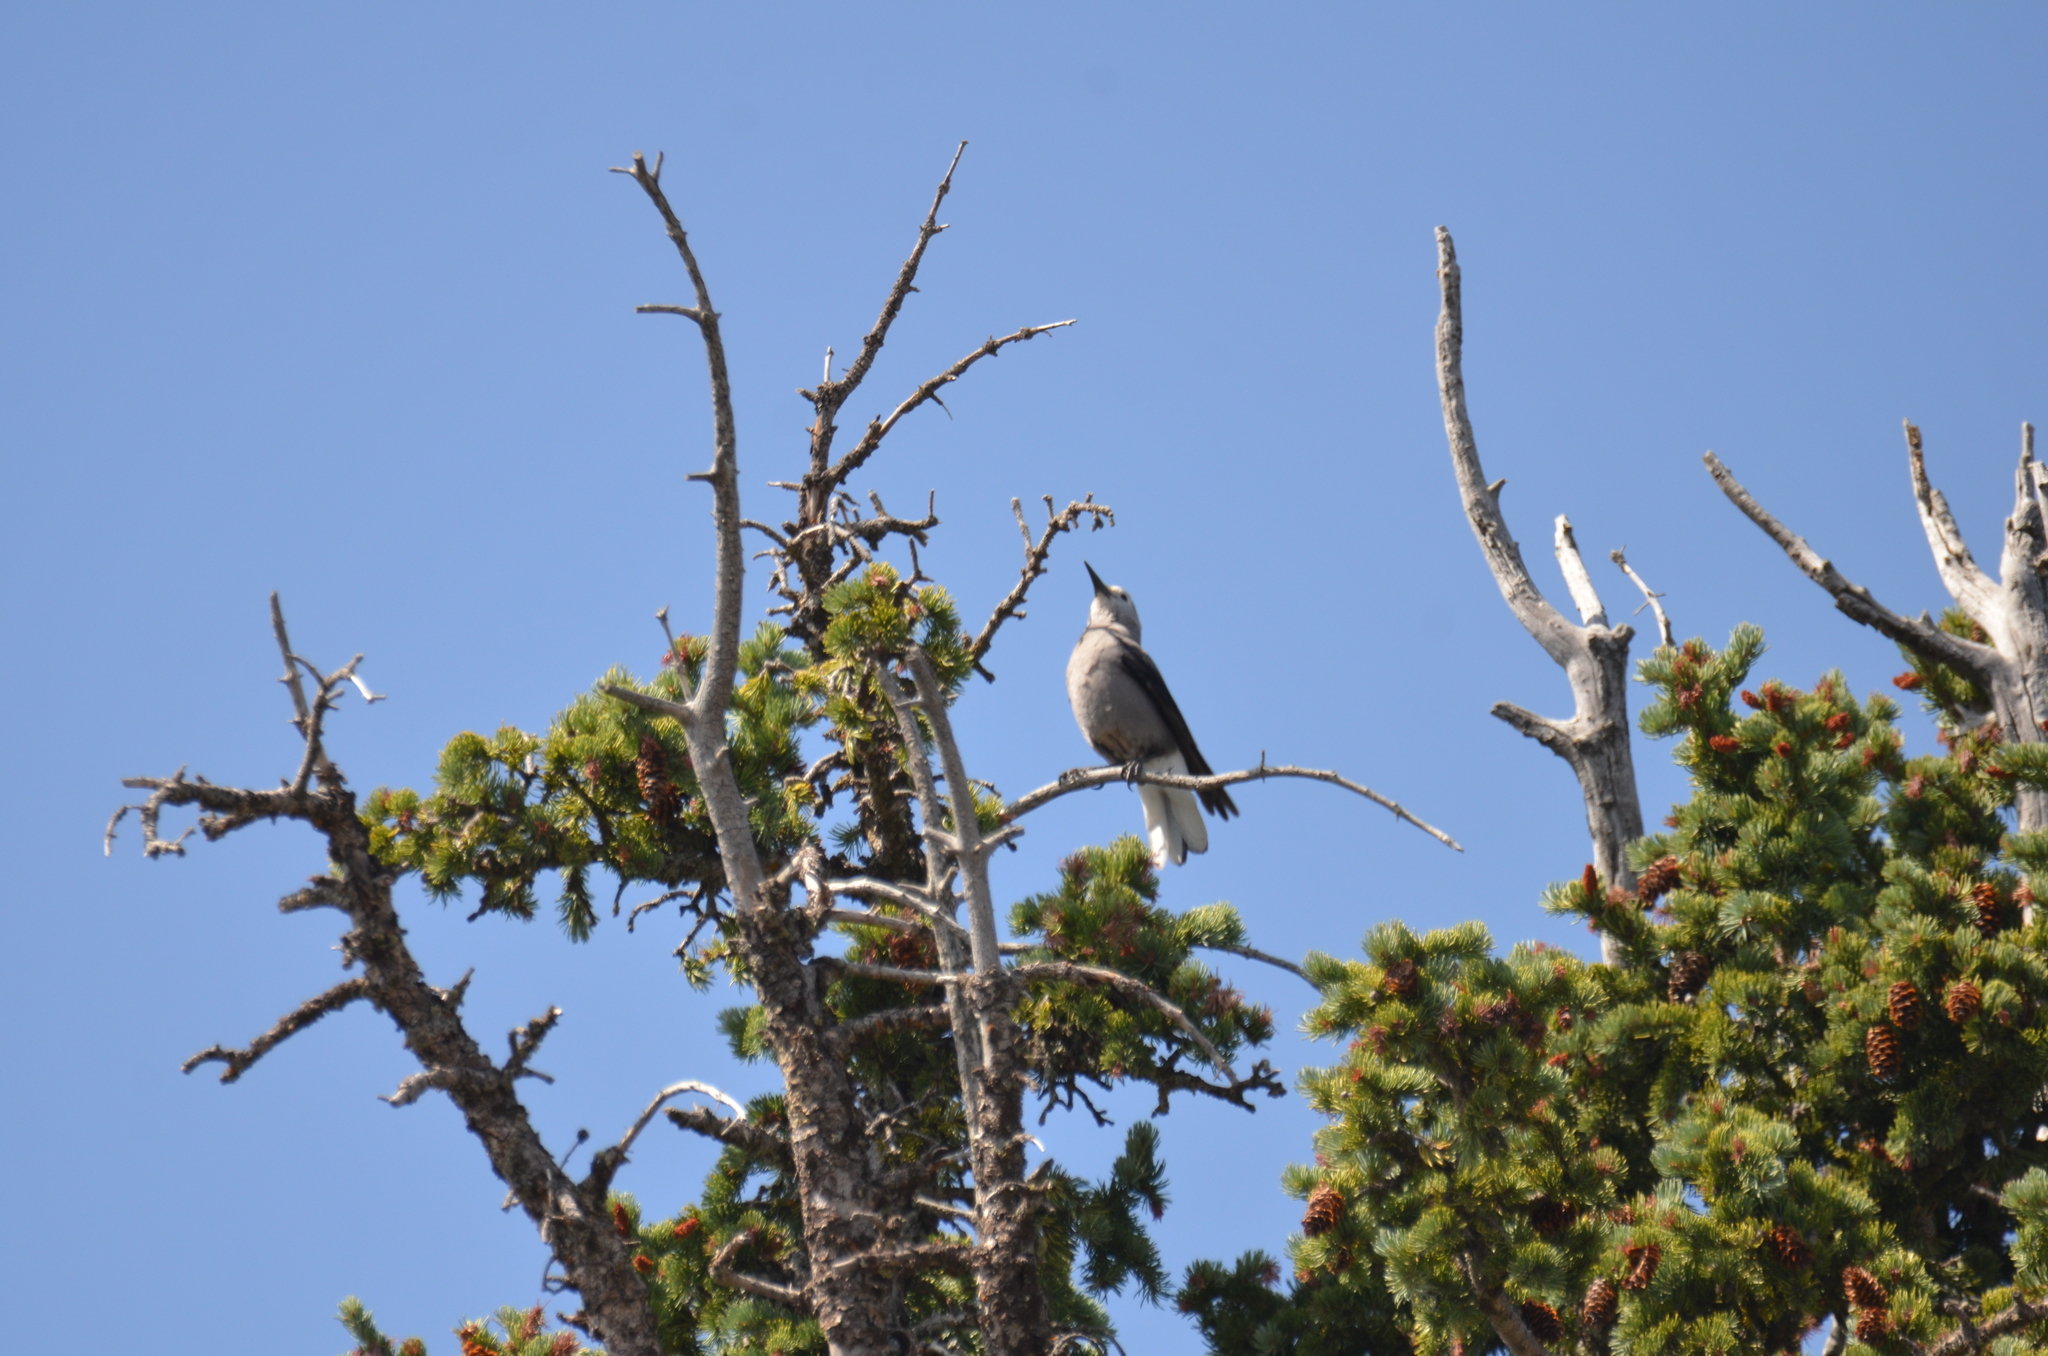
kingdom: Animalia
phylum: Chordata
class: Aves
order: Passeriformes
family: Corvidae
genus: Nucifraga
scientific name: Nucifraga columbiana
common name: Clark's nutcracker
